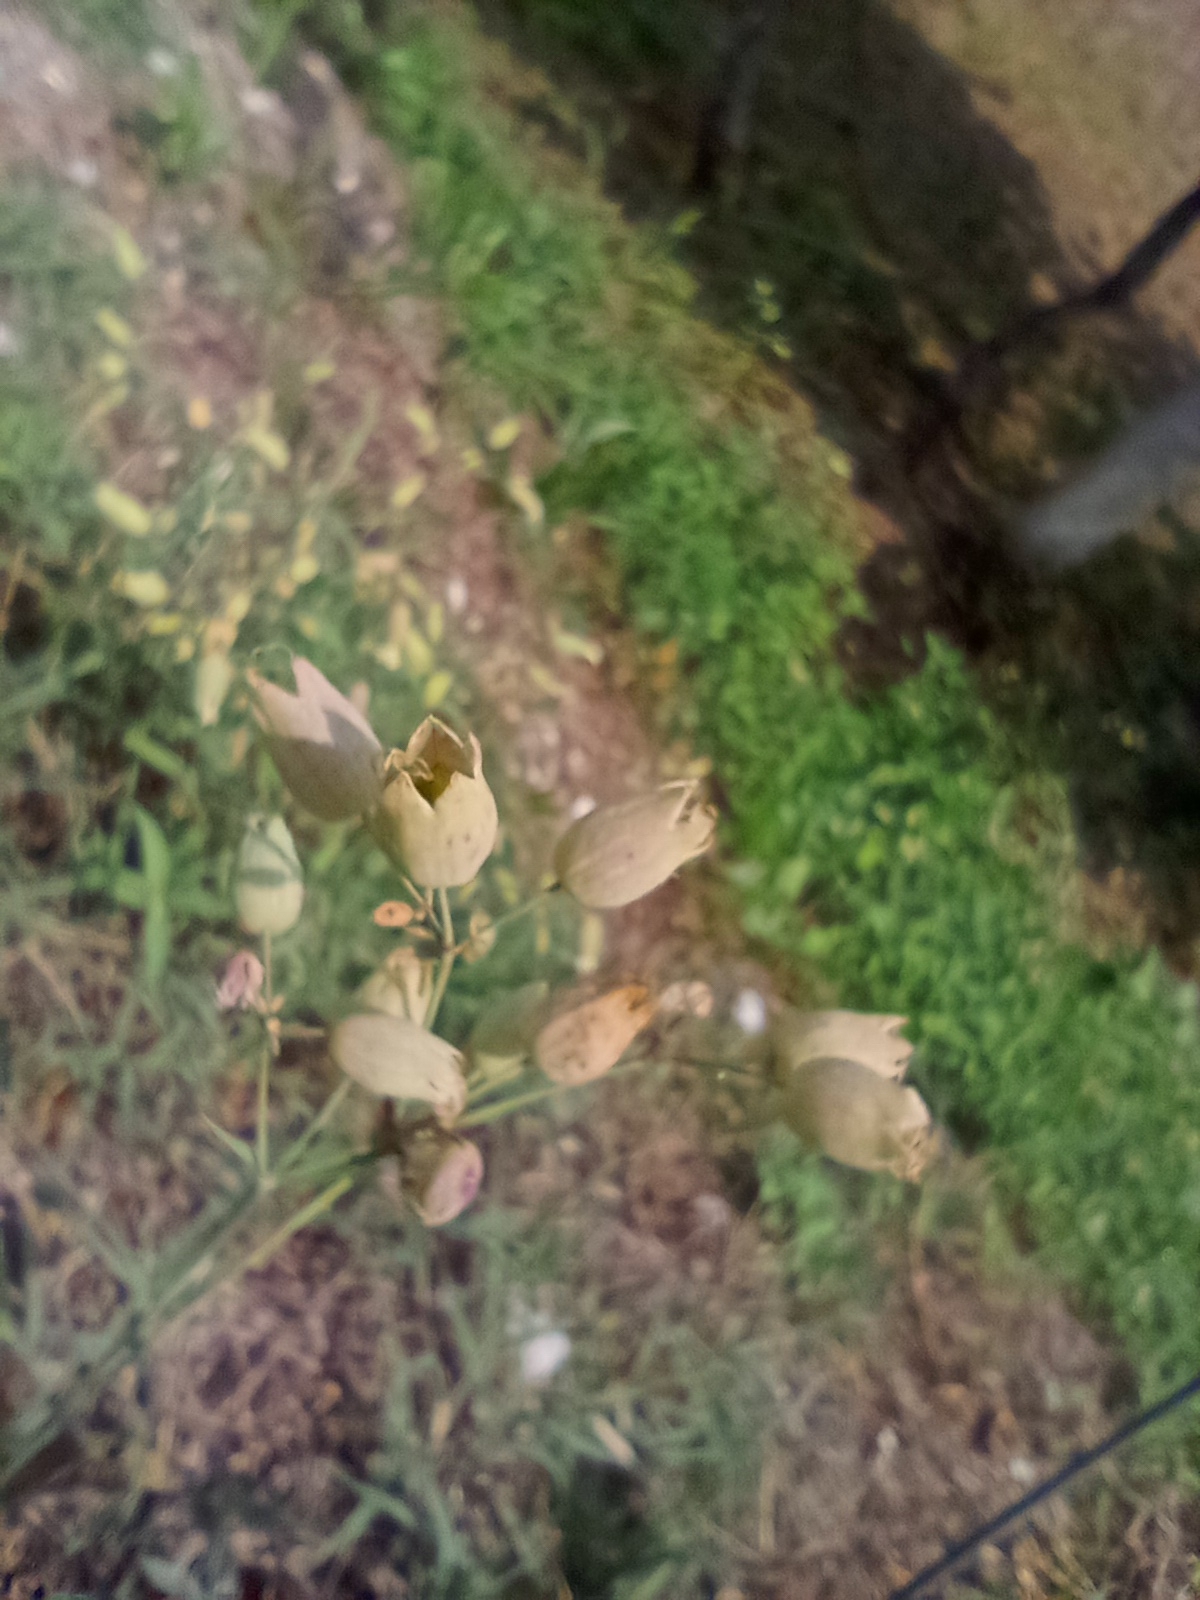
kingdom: Plantae
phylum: Tracheophyta
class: Magnoliopsida
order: Caryophyllales
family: Caryophyllaceae
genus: Silene
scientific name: Silene vulgaris
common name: Bladder campion
